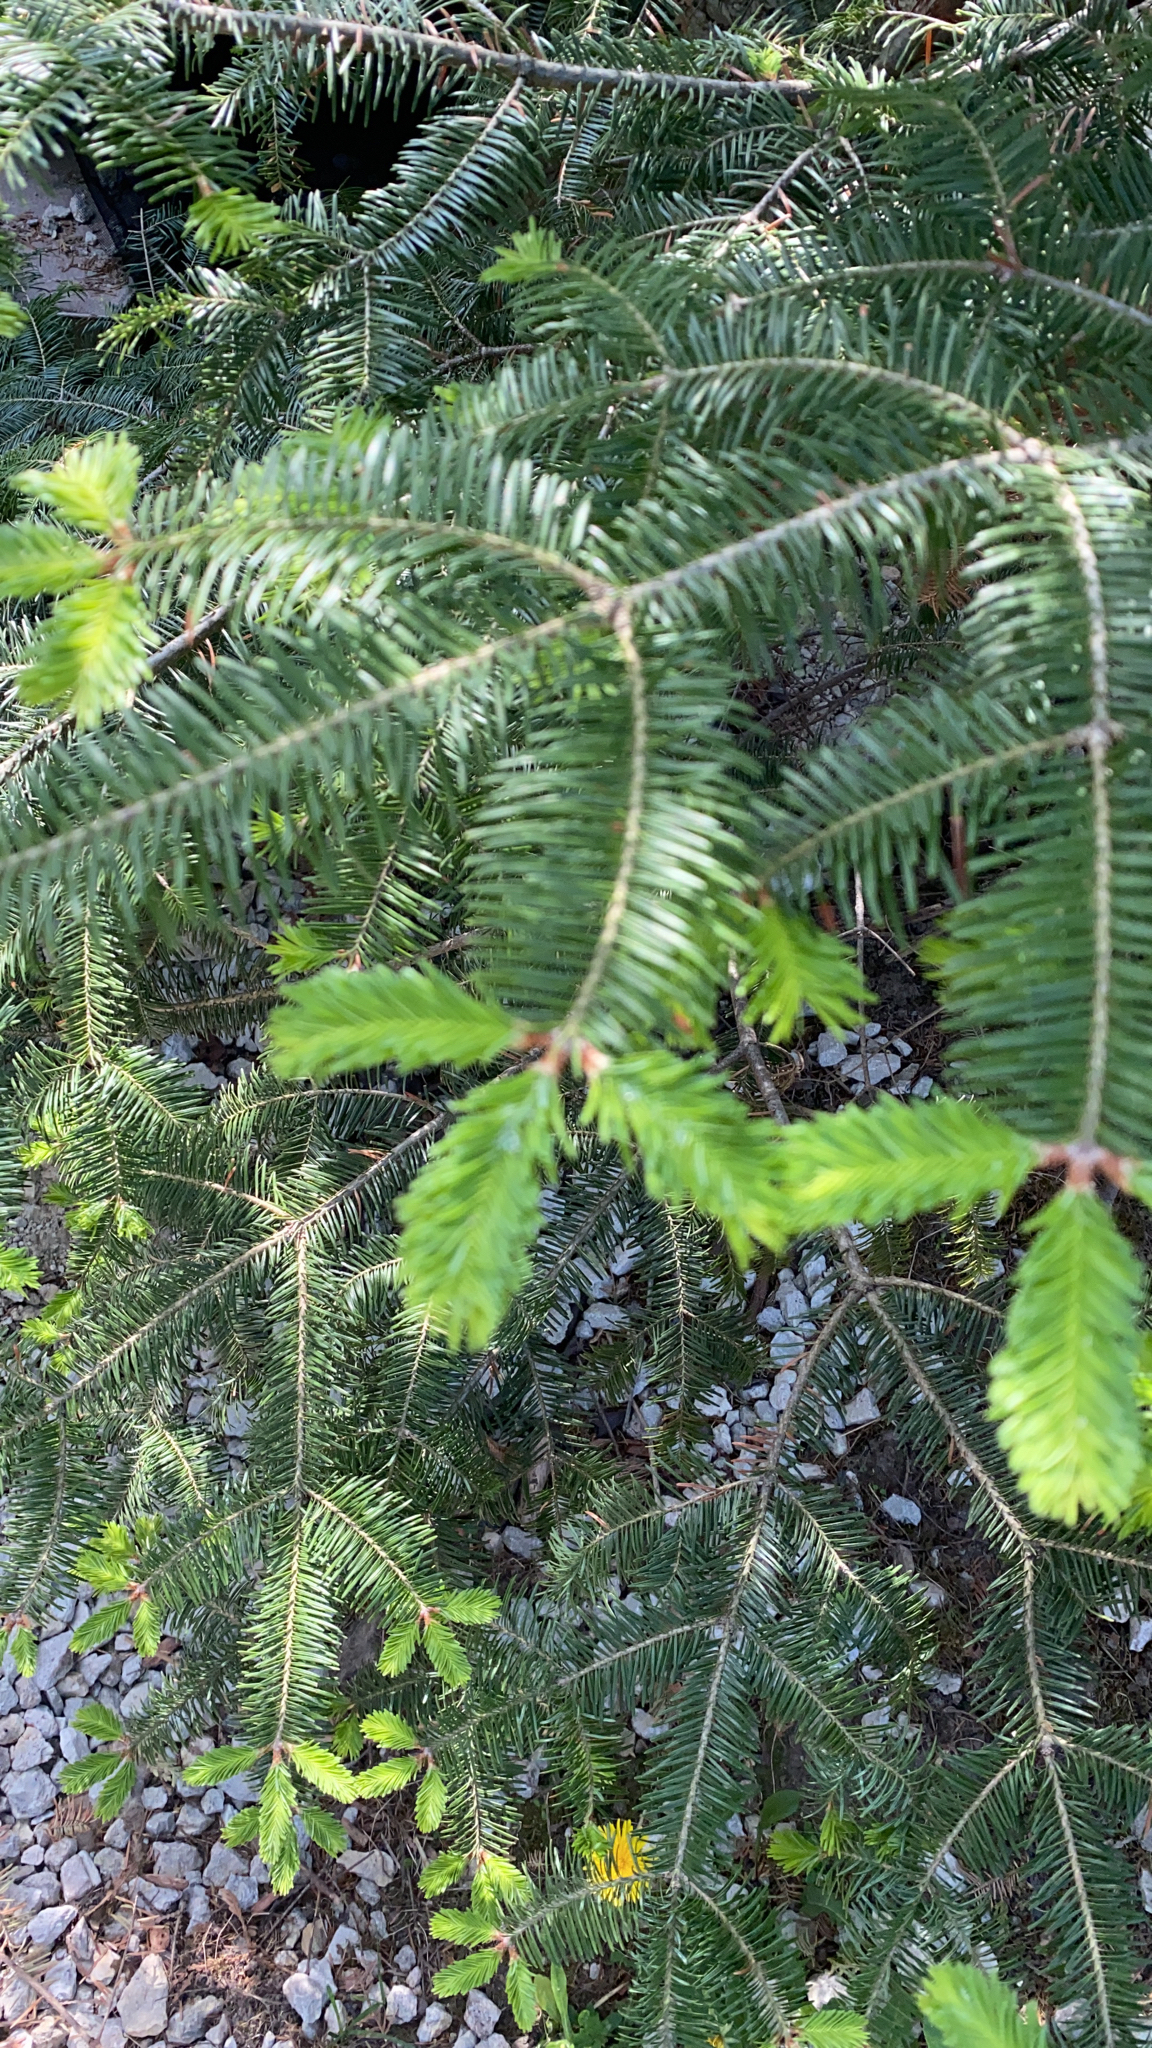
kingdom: Plantae
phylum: Tracheophyta
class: Pinopsida
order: Pinales
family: Pinaceae
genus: Abies
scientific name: Abies balsamea
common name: Balsam fir
